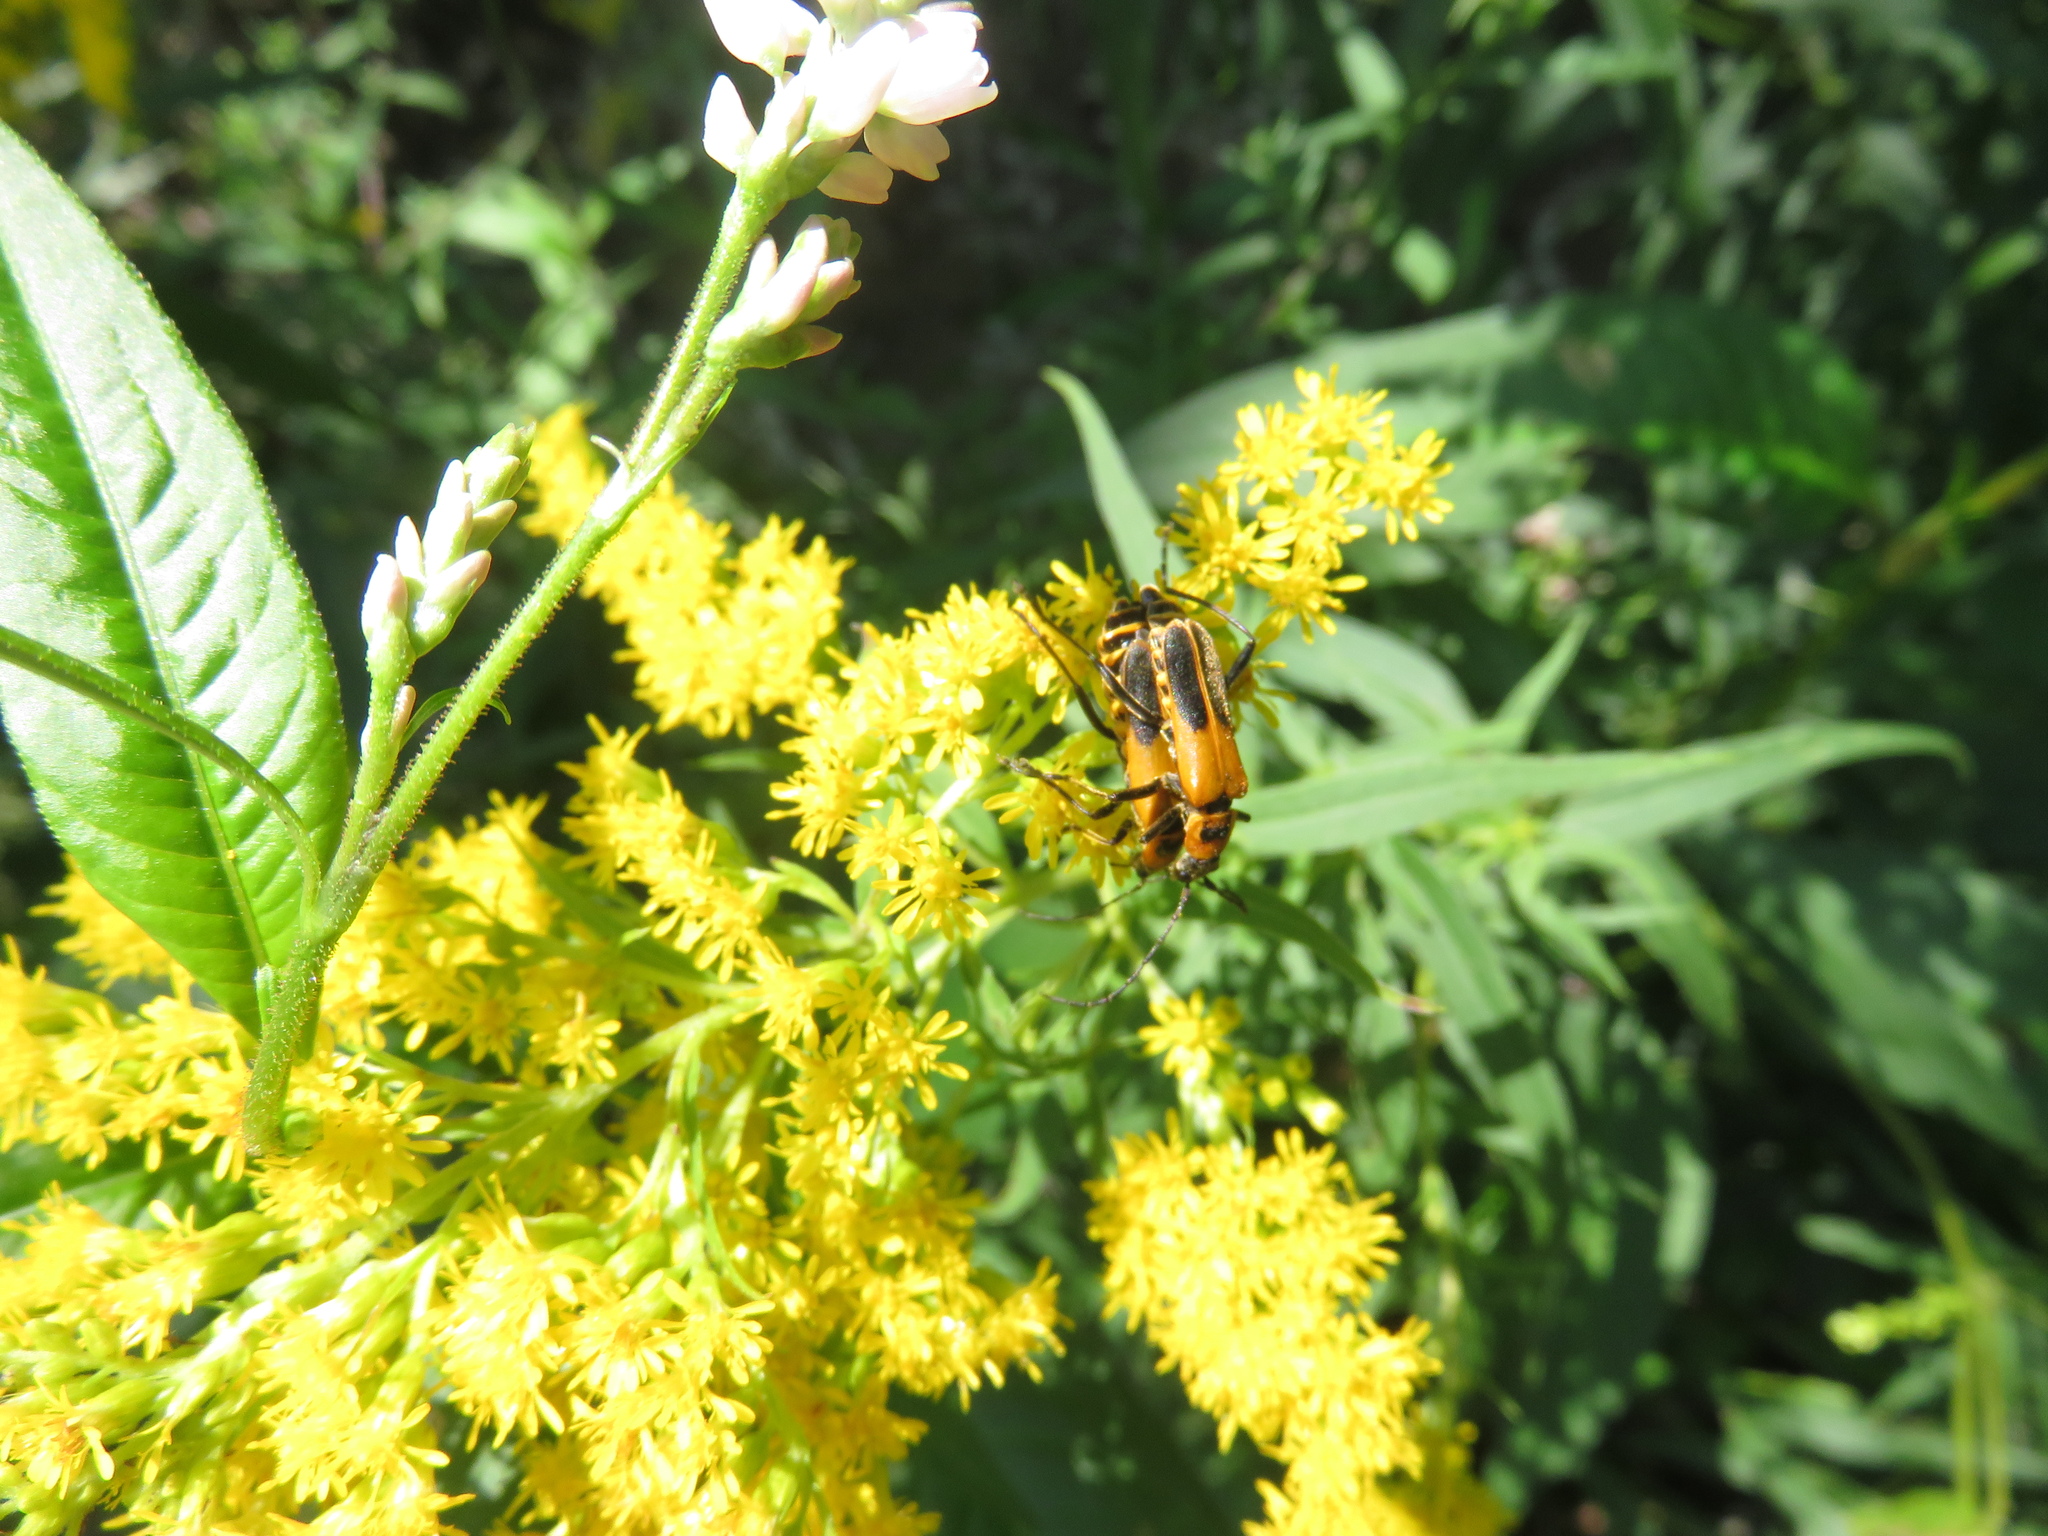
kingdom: Animalia
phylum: Arthropoda
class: Insecta
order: Coleoptera
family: Cantharidae
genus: Chauliognathus
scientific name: Chauliognathus pensylvanicus
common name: Goldenrod soldier beetle
